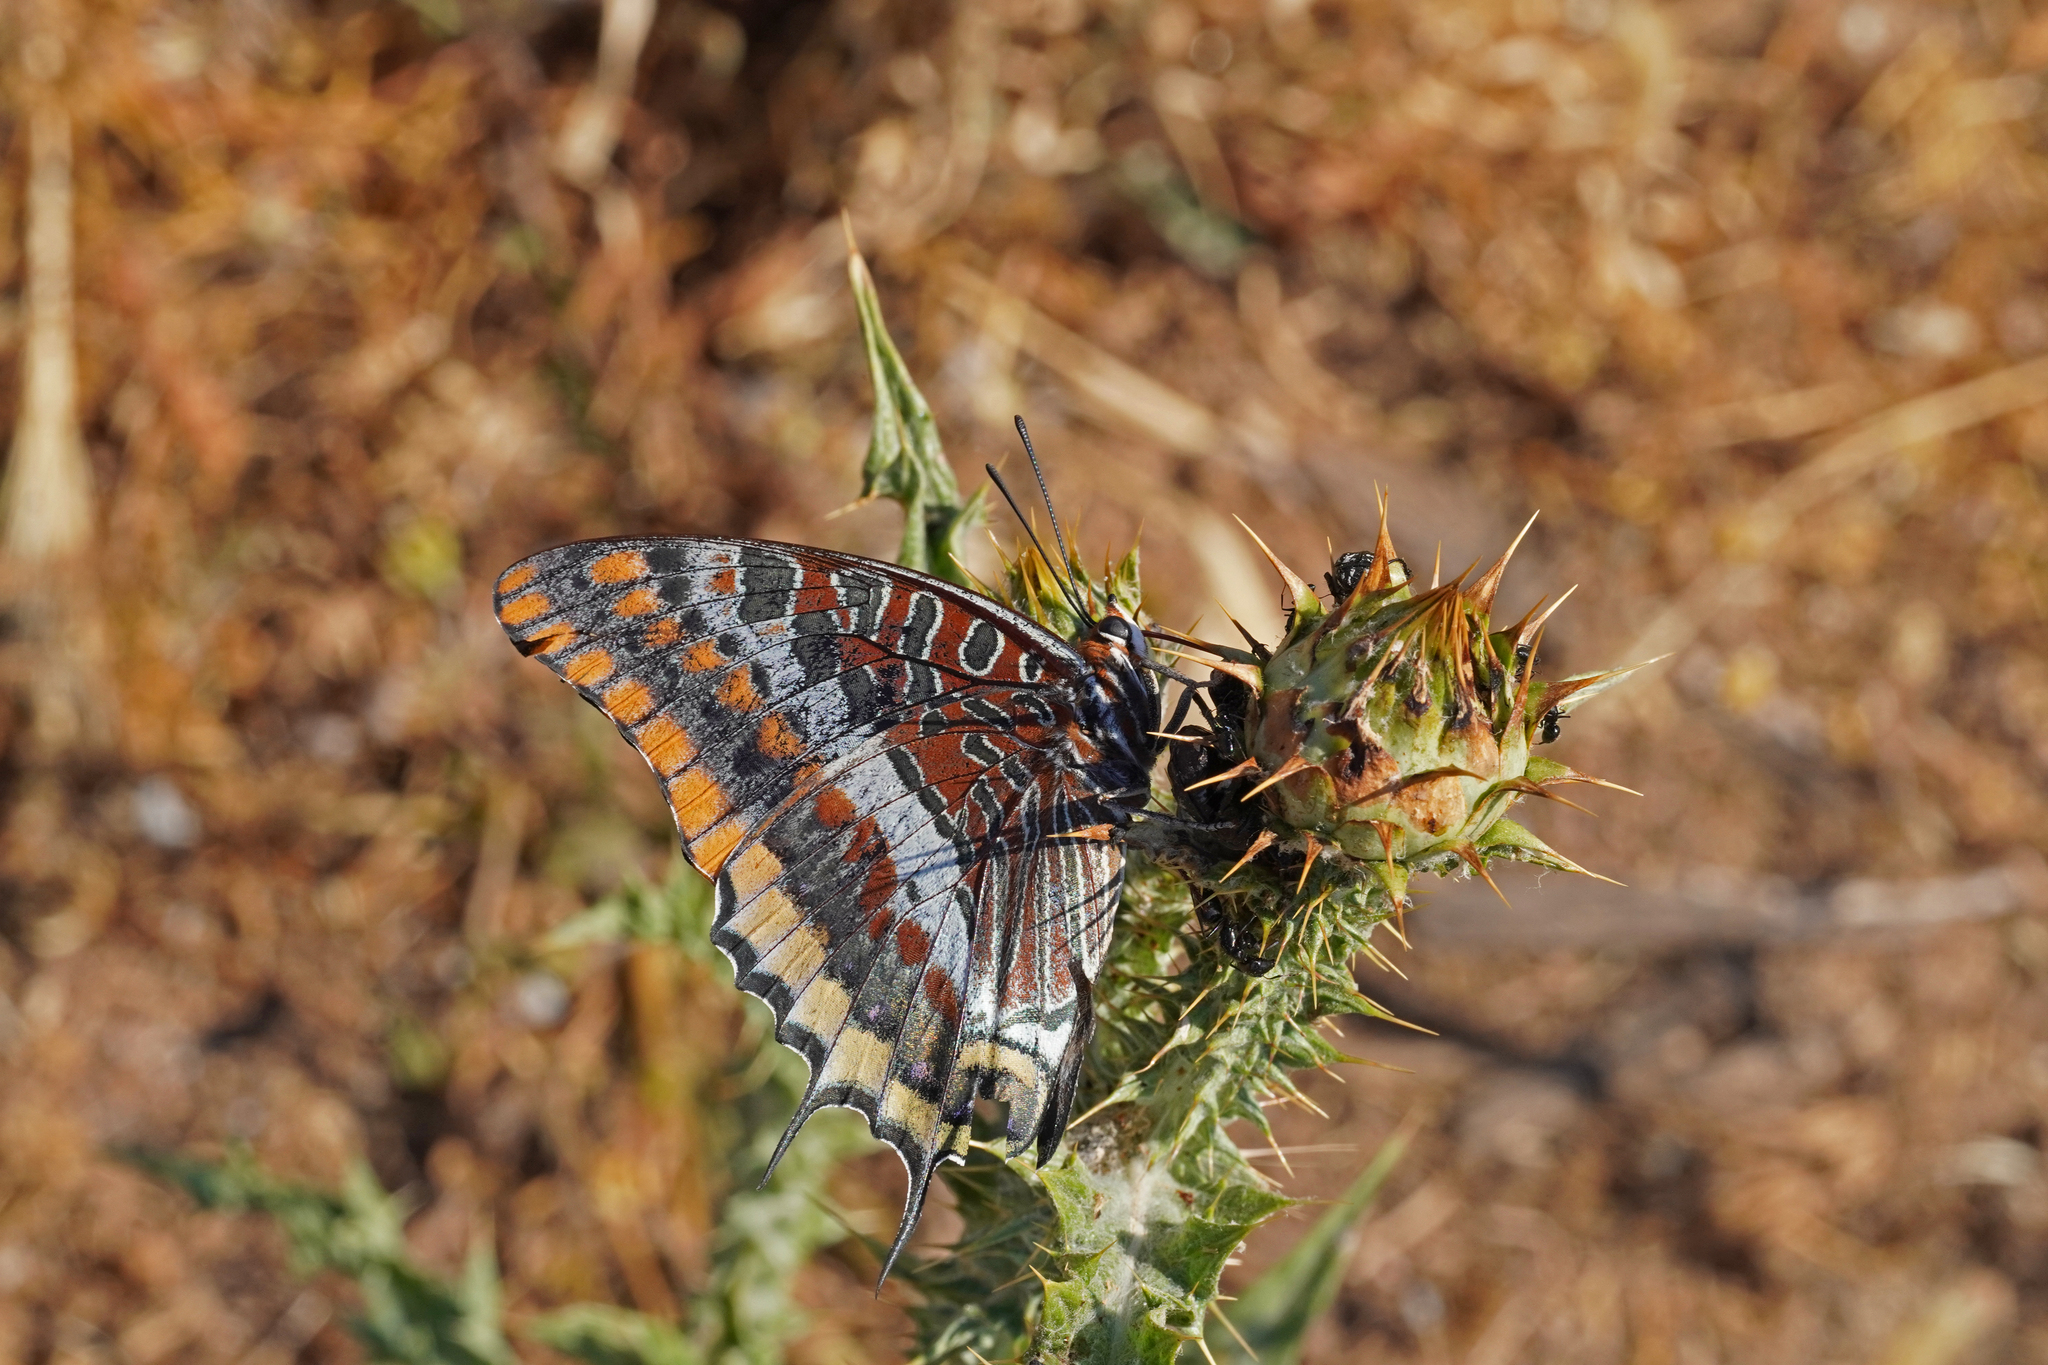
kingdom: Animalia
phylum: Arthropoda
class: Insecta
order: Lepidoptera
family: Nymphalidae
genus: Charaxes
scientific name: Charaxes jasius
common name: Two tailed pasha
